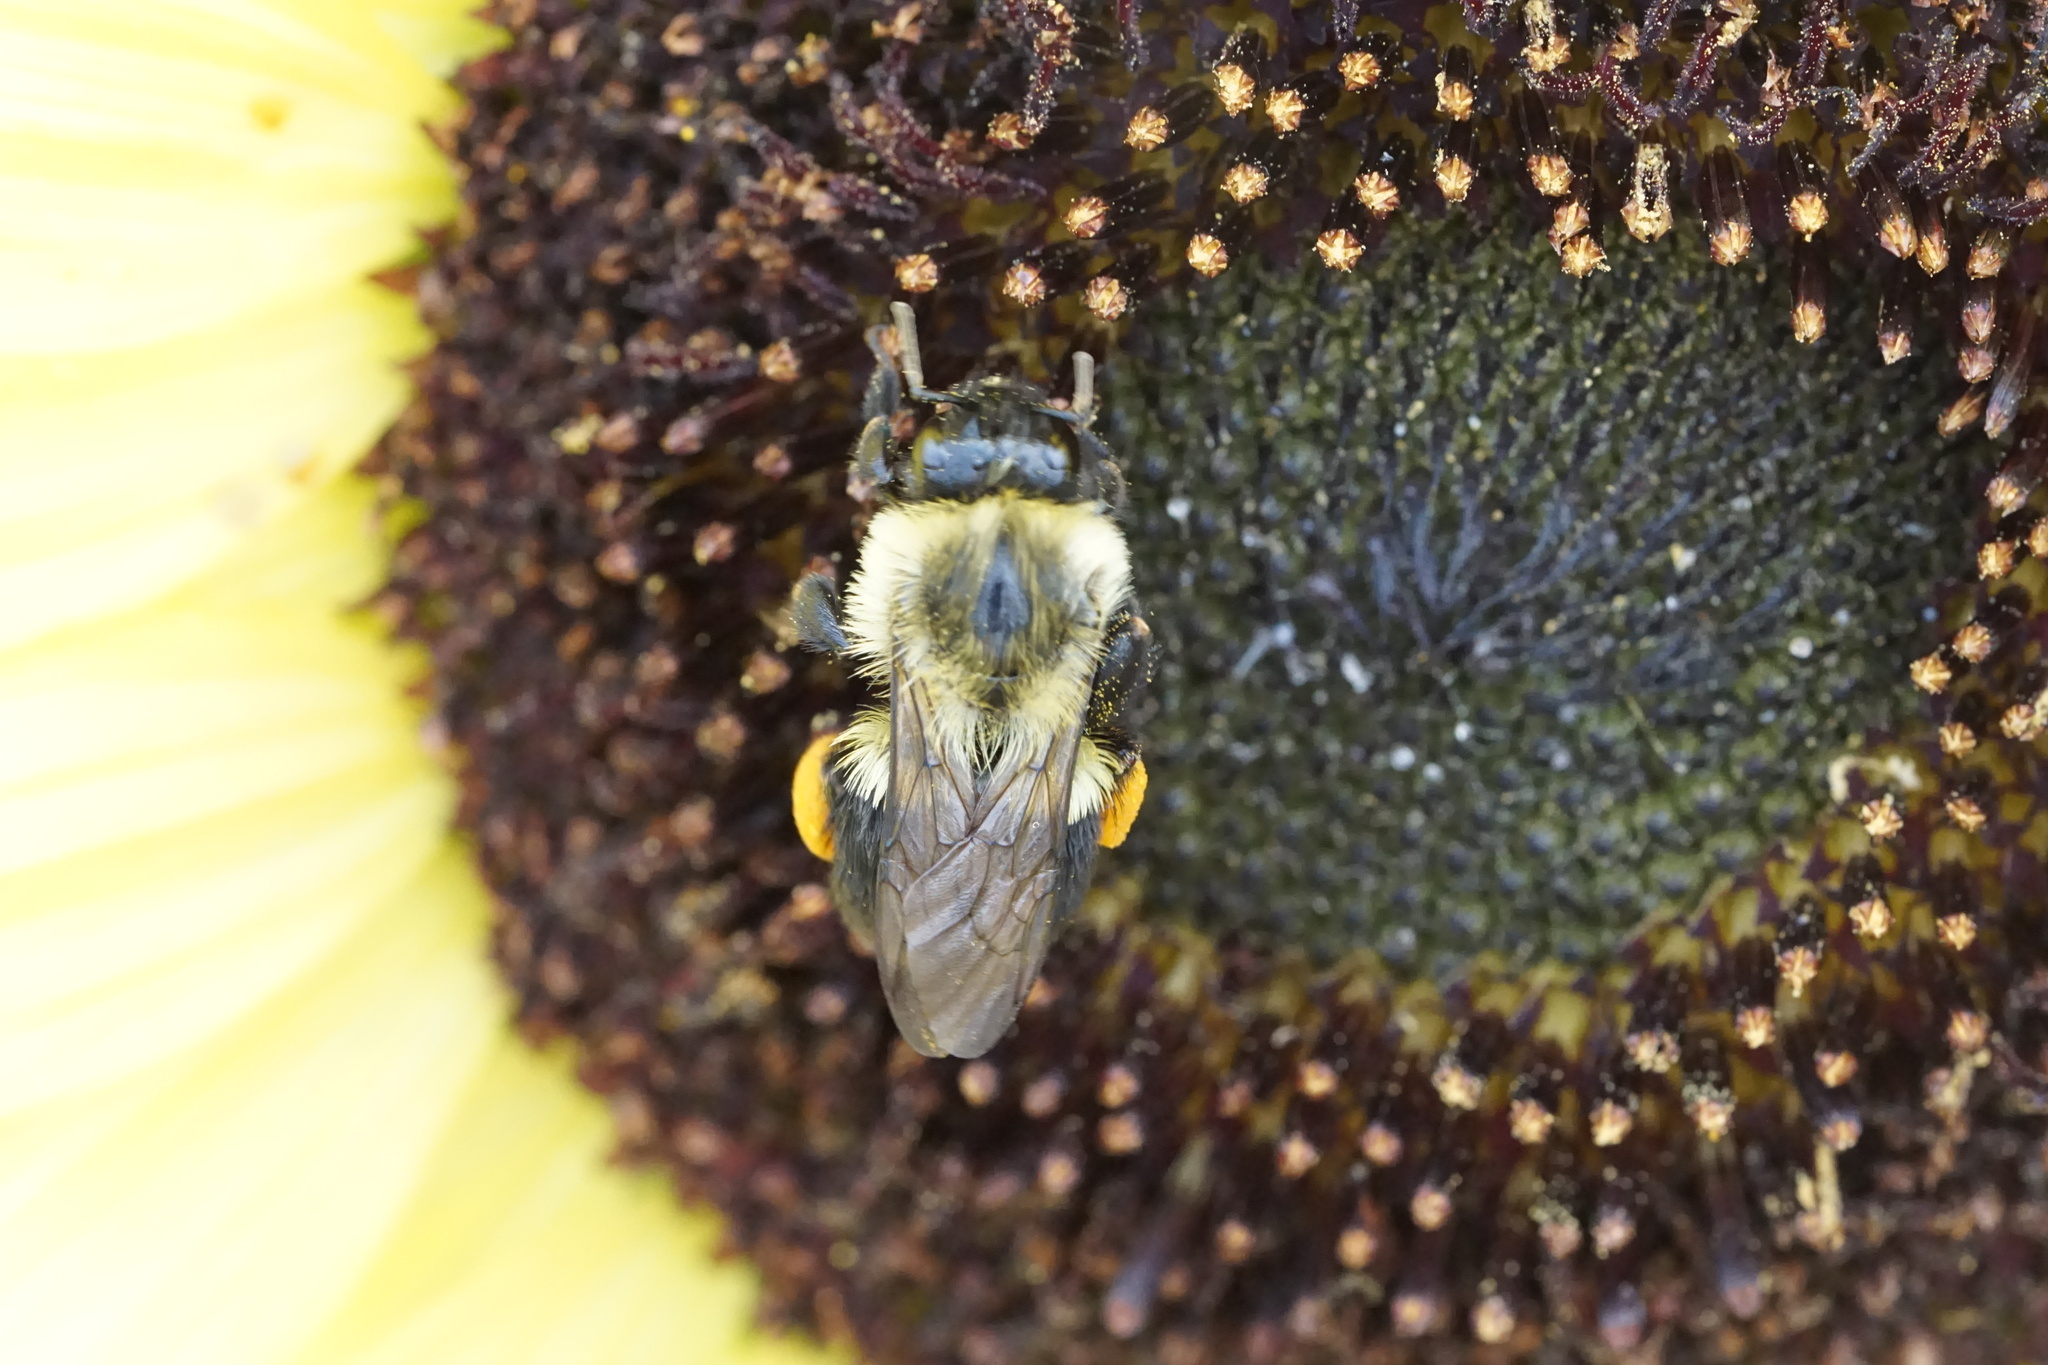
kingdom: Animalia
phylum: Arthropoda
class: Insecta
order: Hymenoptera
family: Apidae
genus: Bombus
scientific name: Bombus impatiens
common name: Common eastern bumble bee
